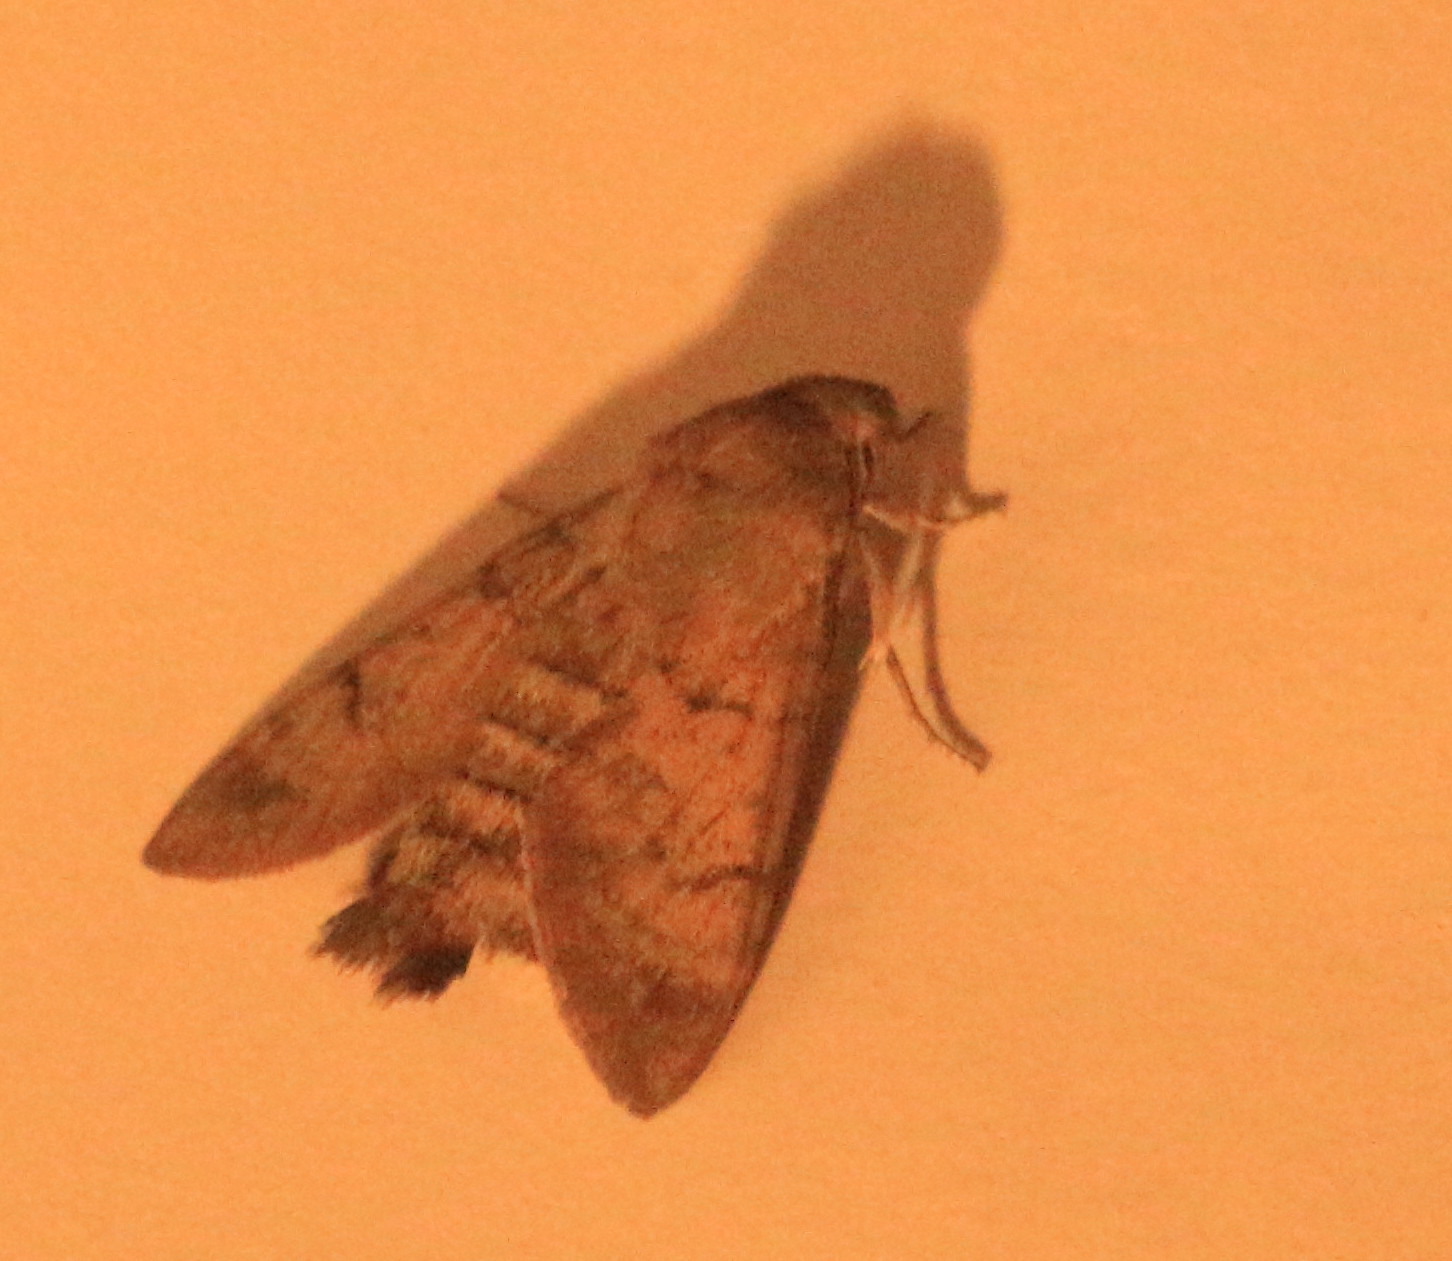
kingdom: Animalia
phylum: Arthropoda
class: Insecta
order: Lepidoptera
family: Sphingidae
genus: Macroglossum
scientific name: Macroglossum stellatarum
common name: Humming-bird hawk-moth
